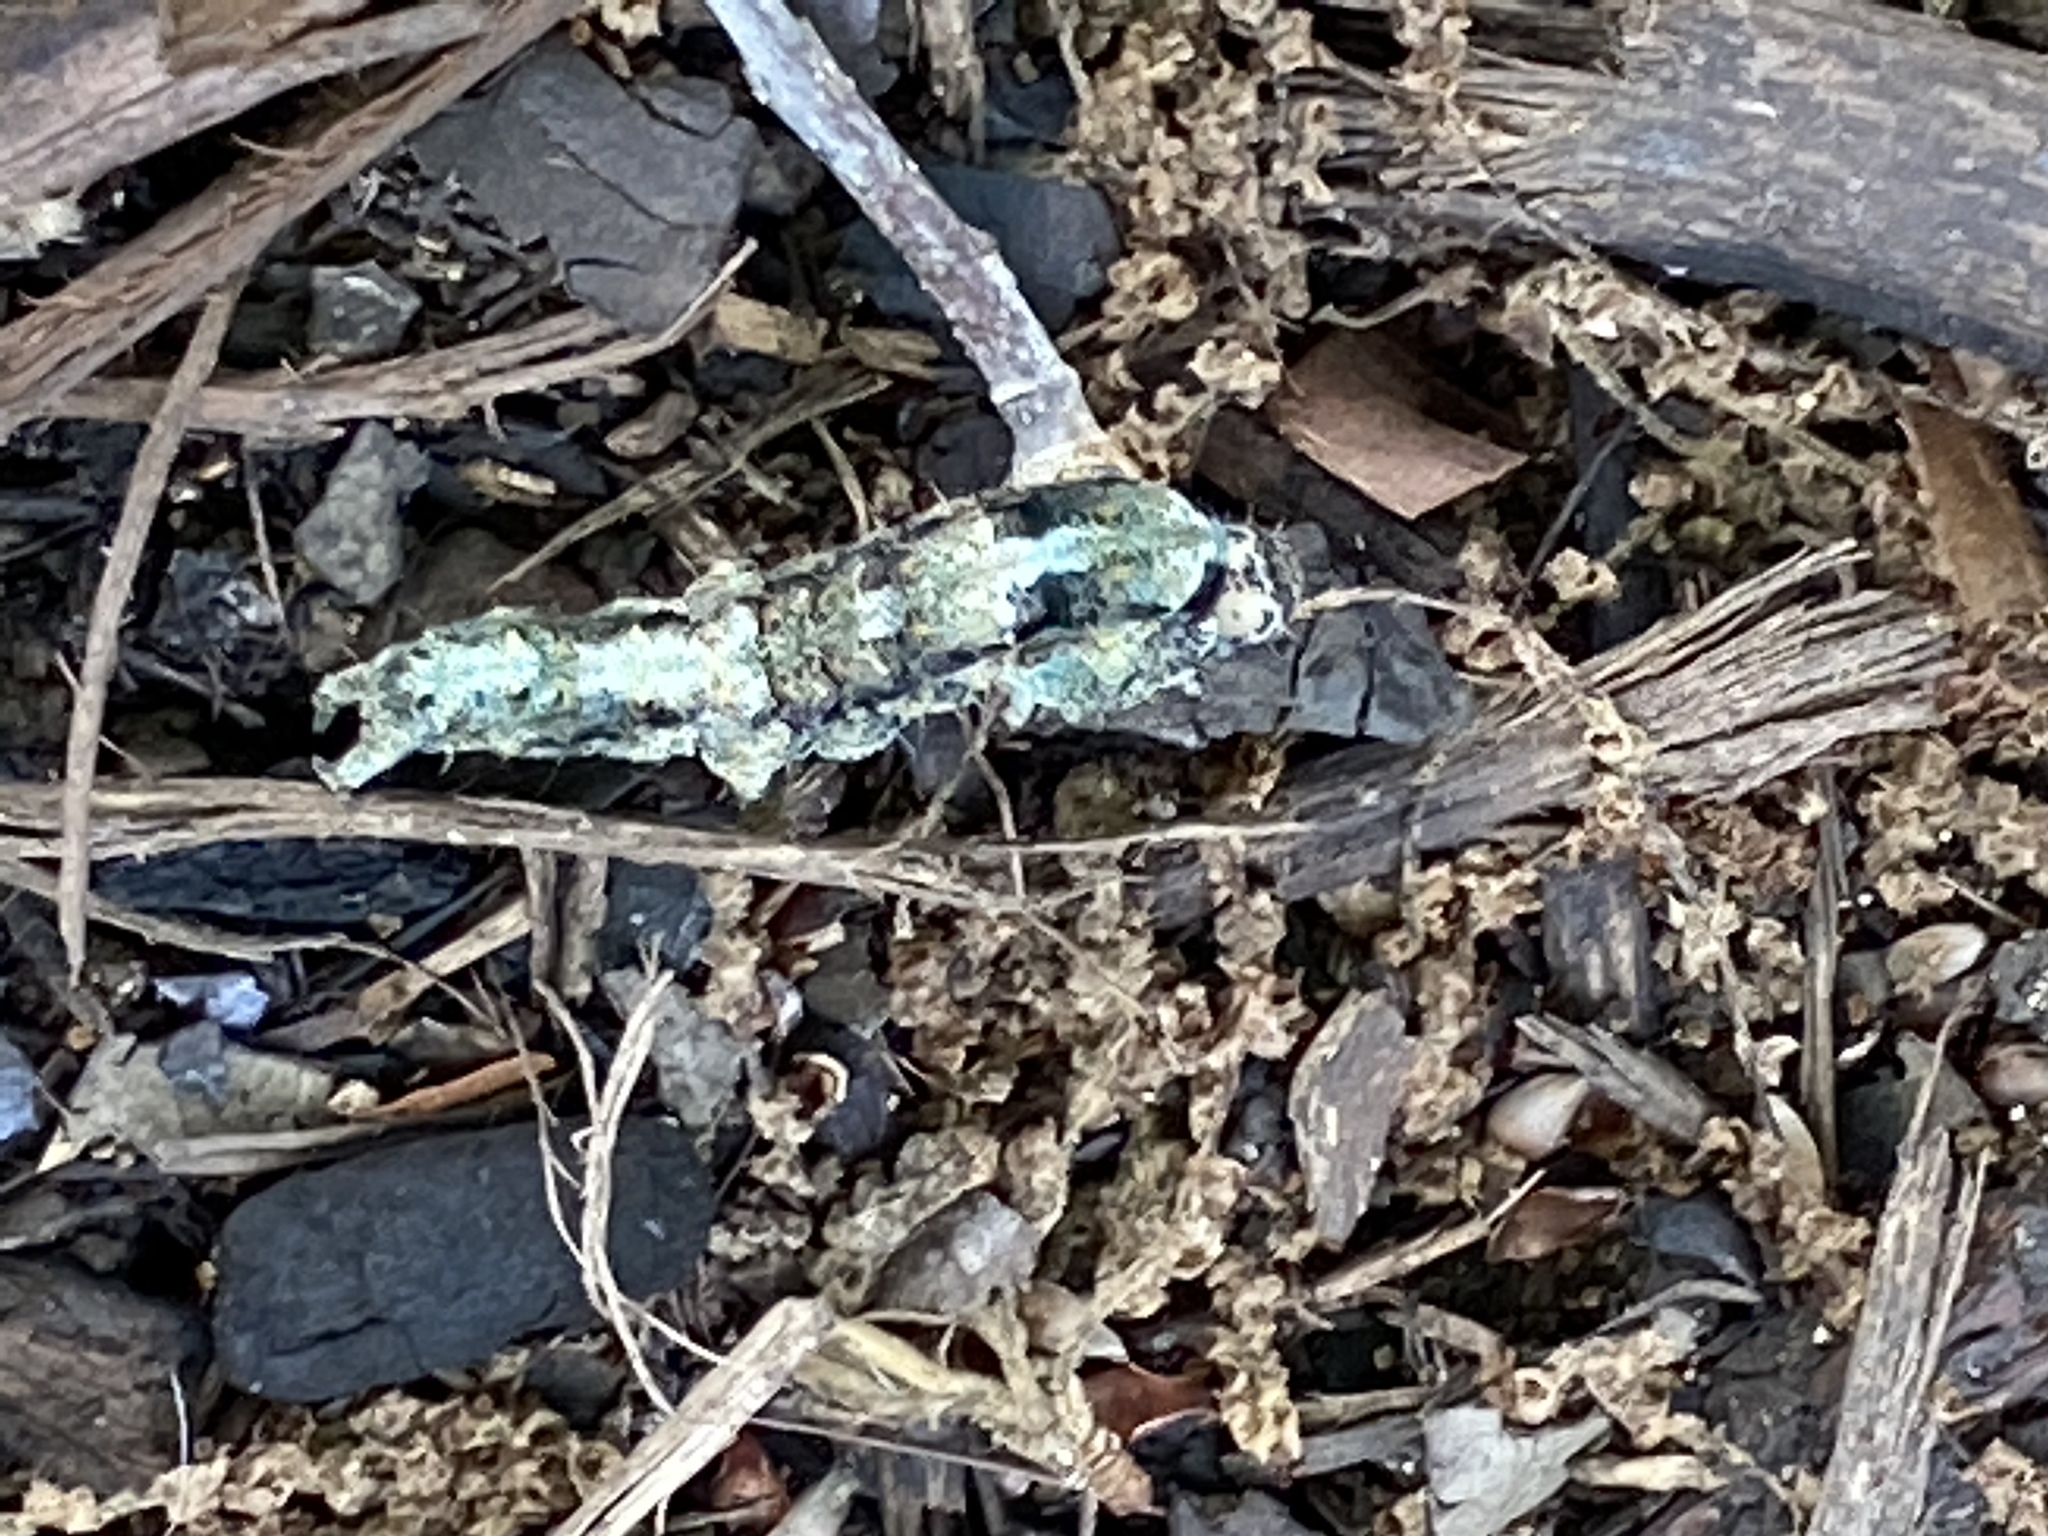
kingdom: Animalia
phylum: Arthropoda
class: Insecta
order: Lepidoptera
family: Erebidae
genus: Metria
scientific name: Metria amella
